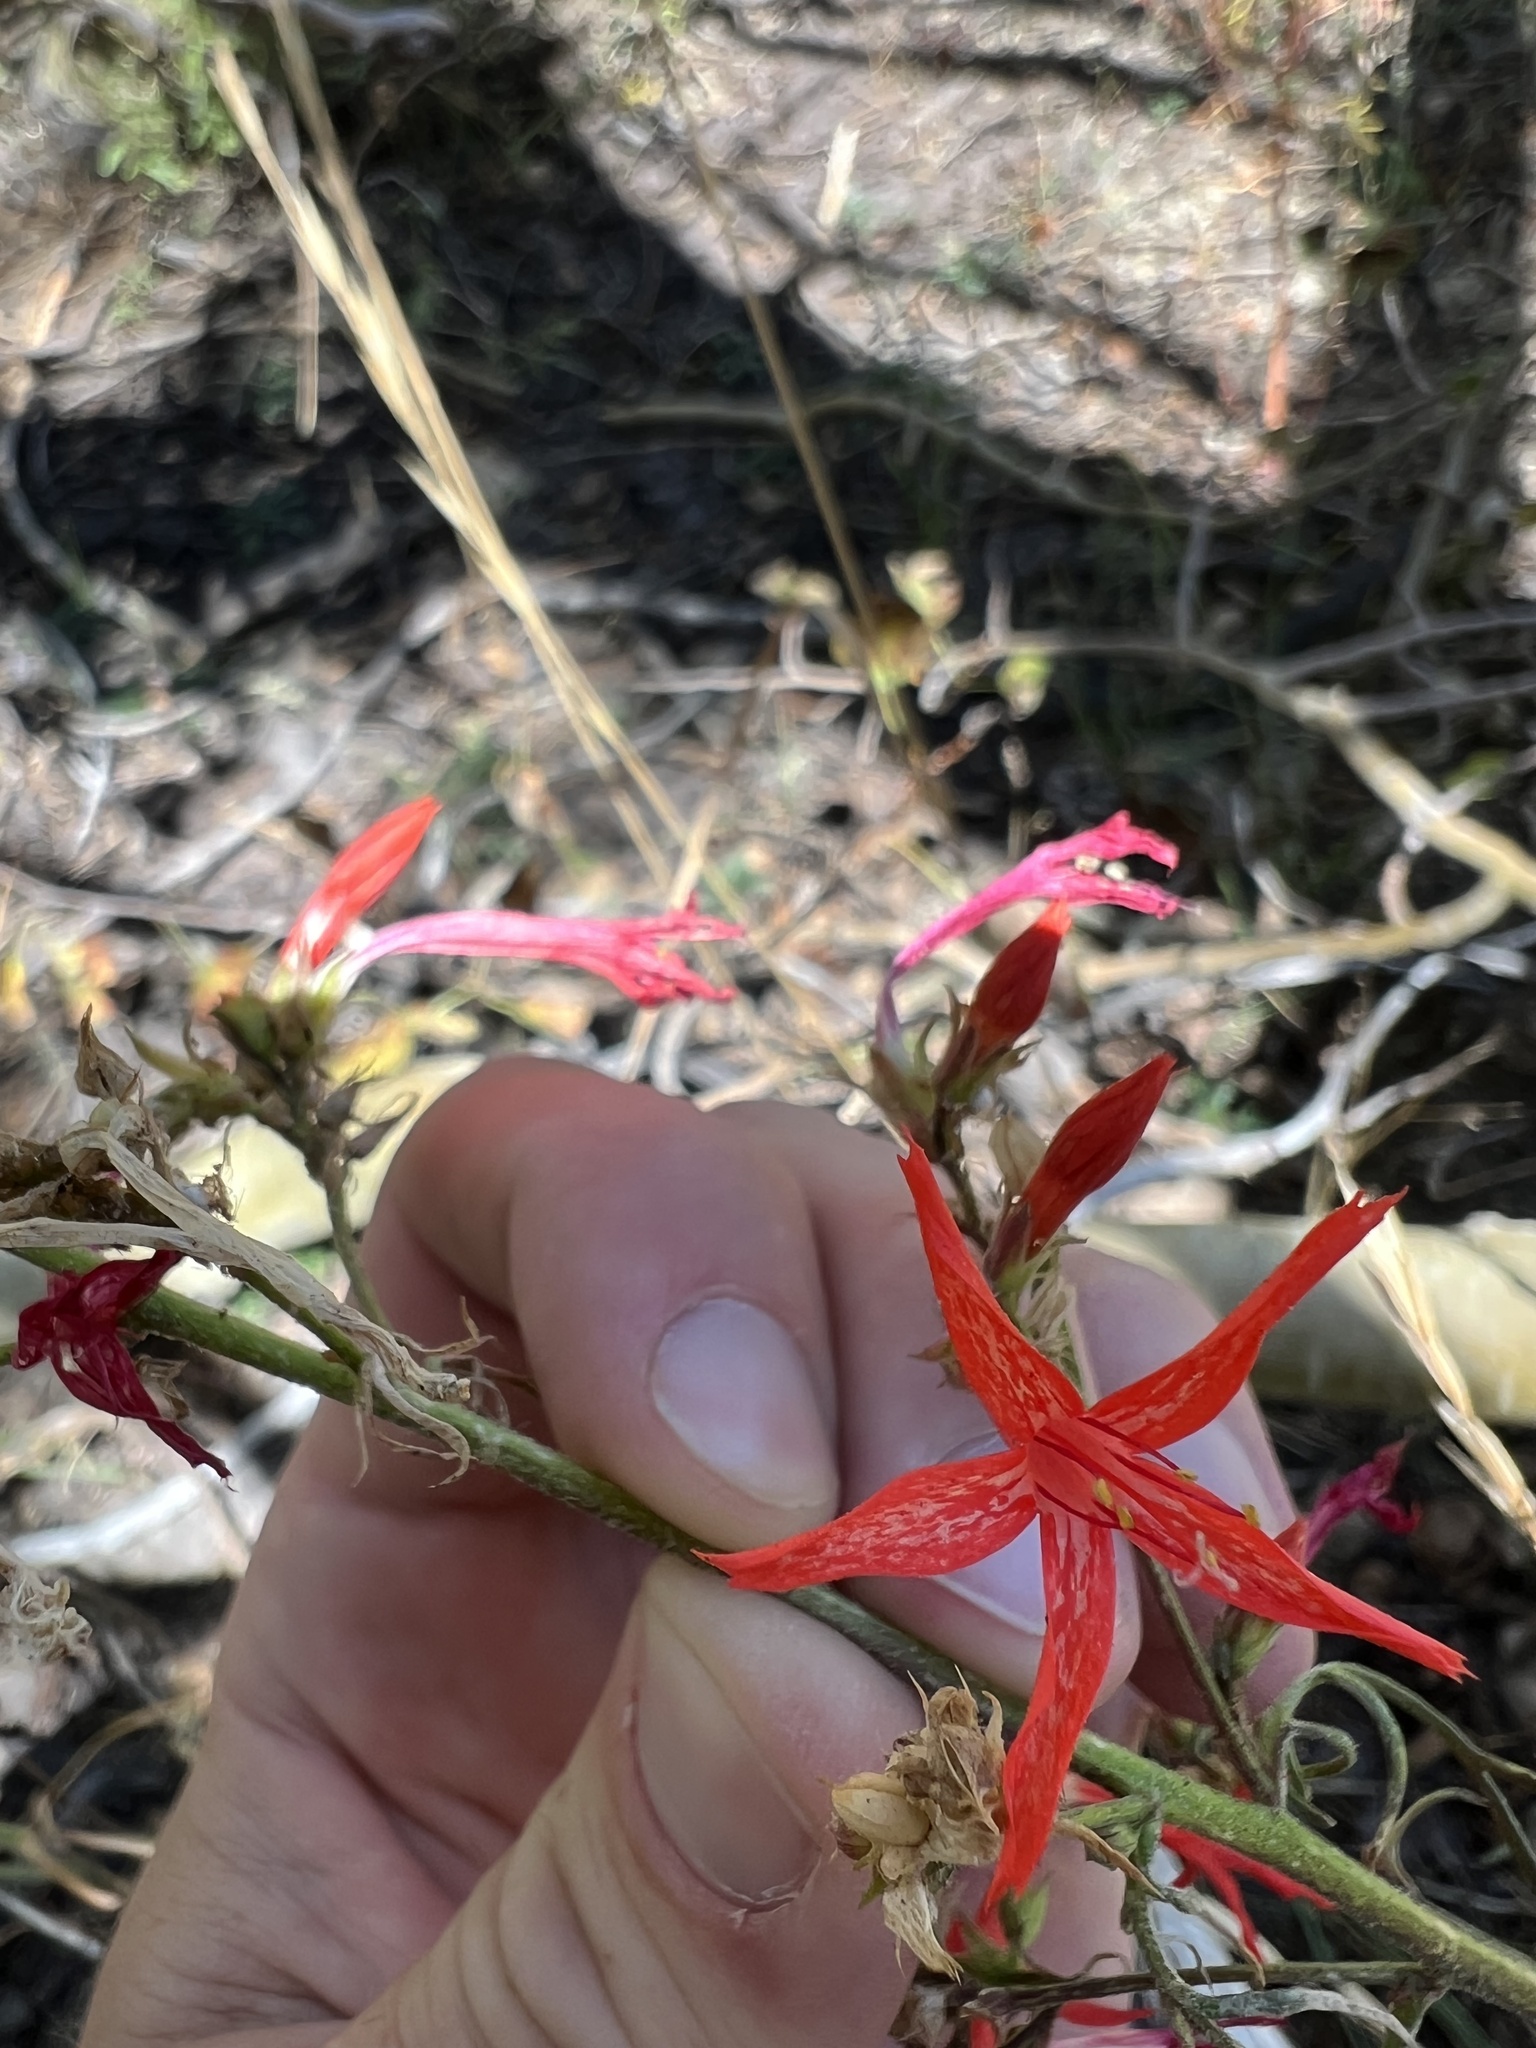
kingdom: Plantae
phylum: Tracheophyta
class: Magnoliopsida
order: Ericales
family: Polemoniaceae
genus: Ipomopsis
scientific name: Ipomopsis aggregata
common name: Scarlet gilia
